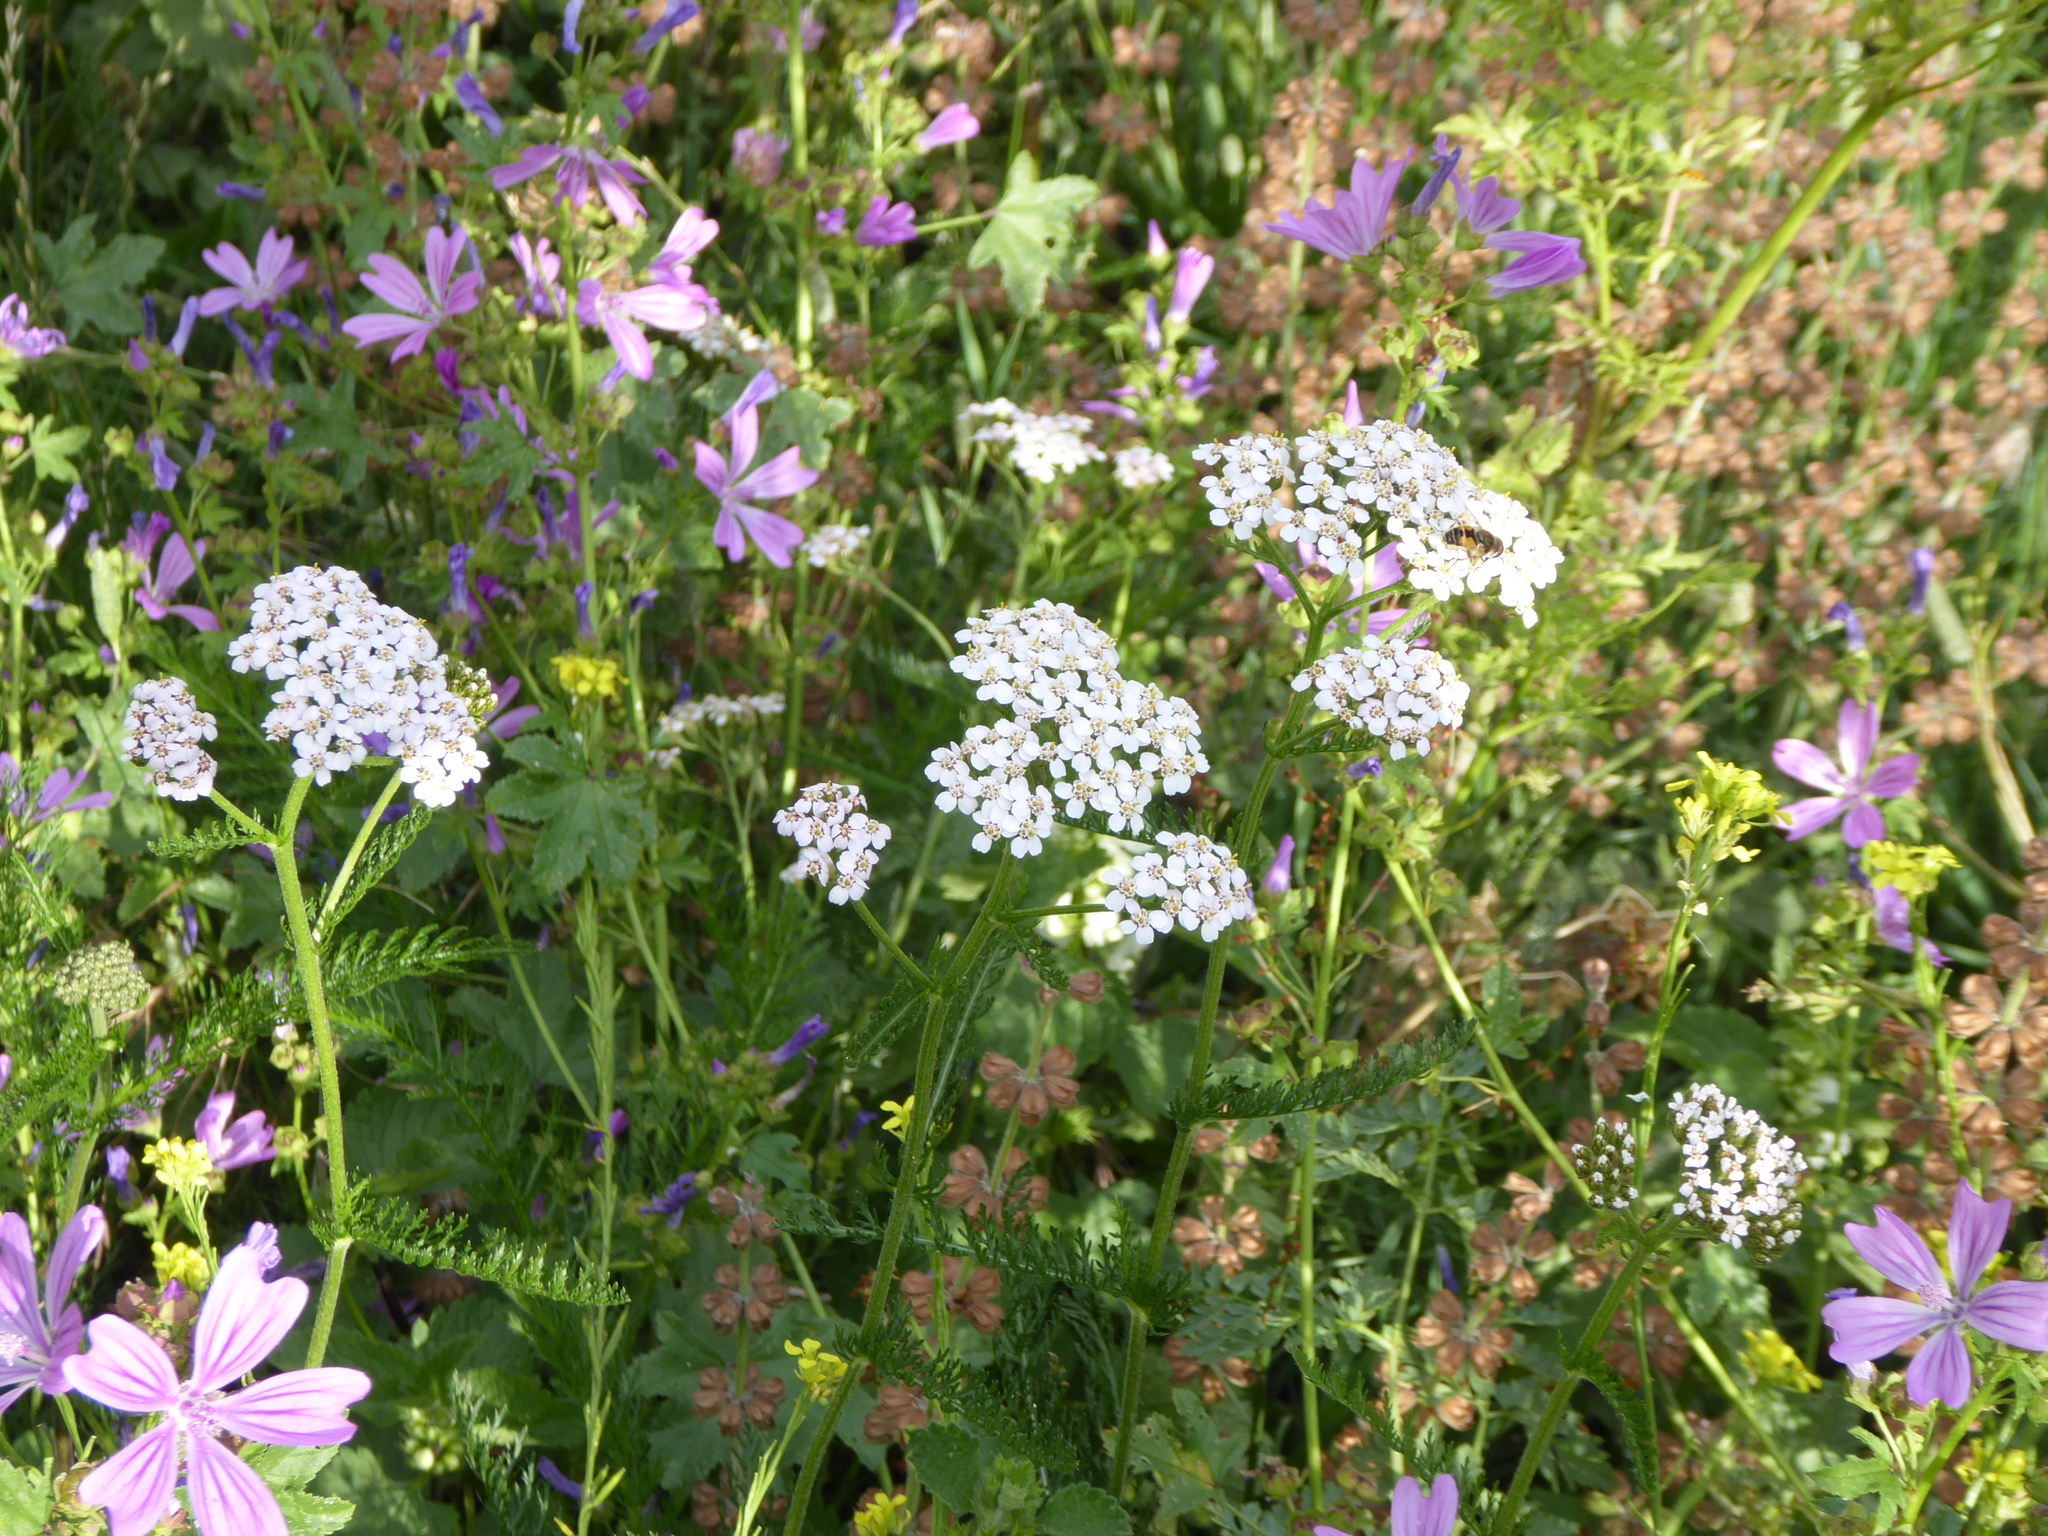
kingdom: Plantae
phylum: Tracheophyta
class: Magnoliopsida
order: Asterales
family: Asteraceae
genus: Achillea
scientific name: Achillea millefolium
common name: Yarrow
